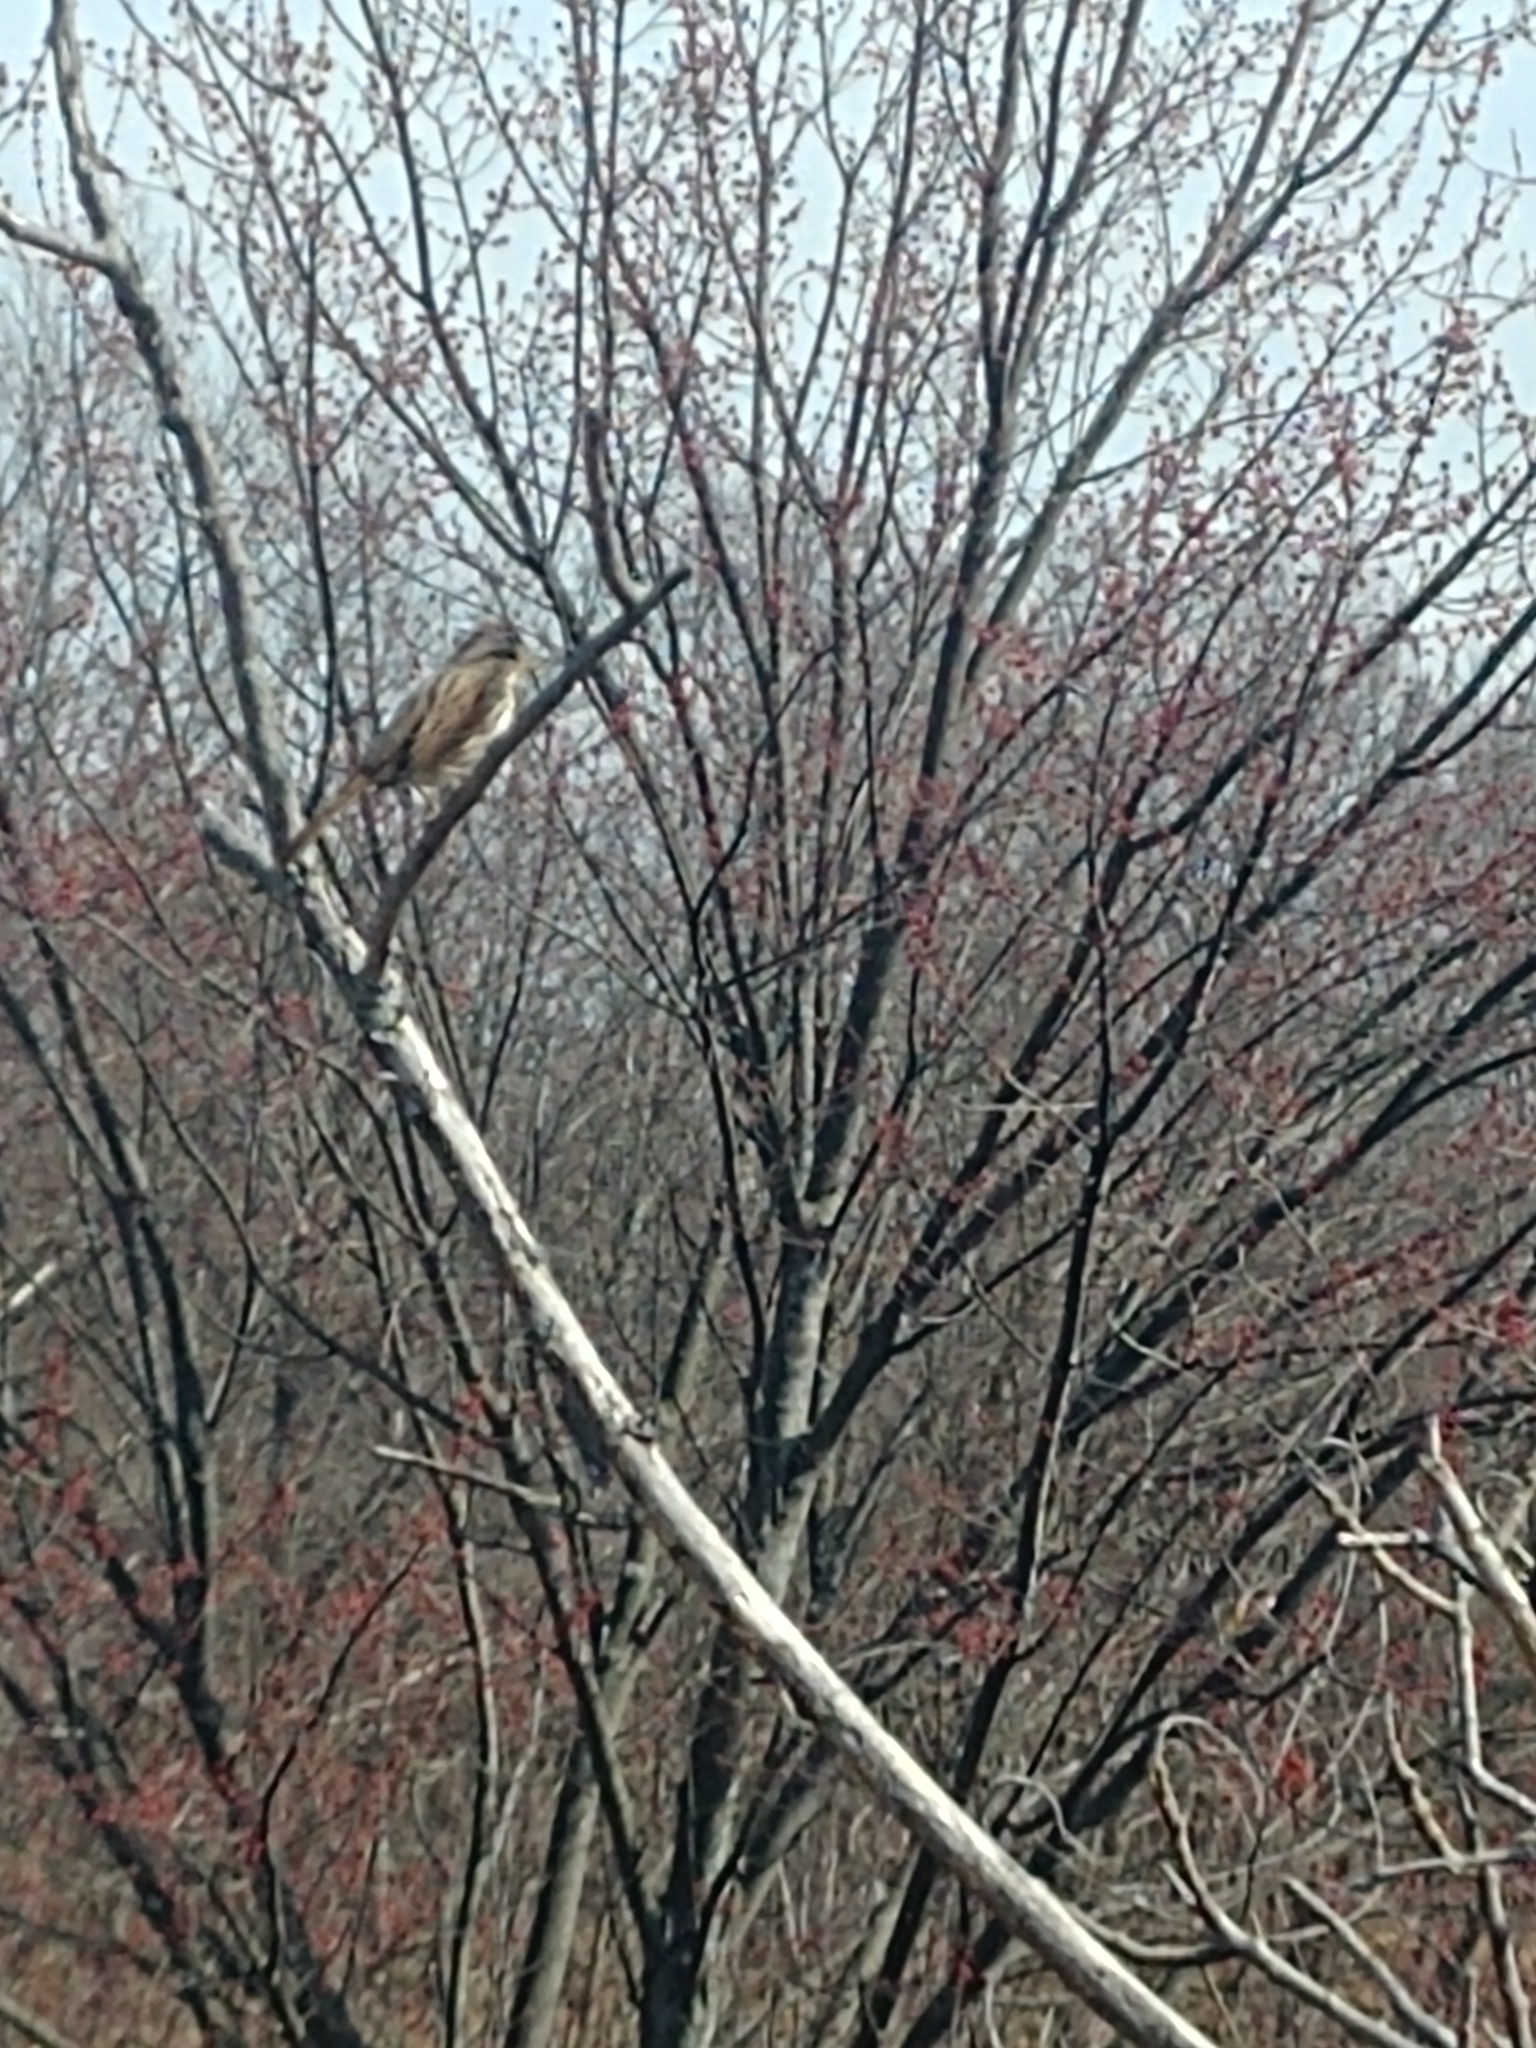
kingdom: Animalia
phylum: Chordata
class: Aves
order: Passeriformes
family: Passerellidae
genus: Melospiza
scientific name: Melospiza melodia
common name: Song sparrow
